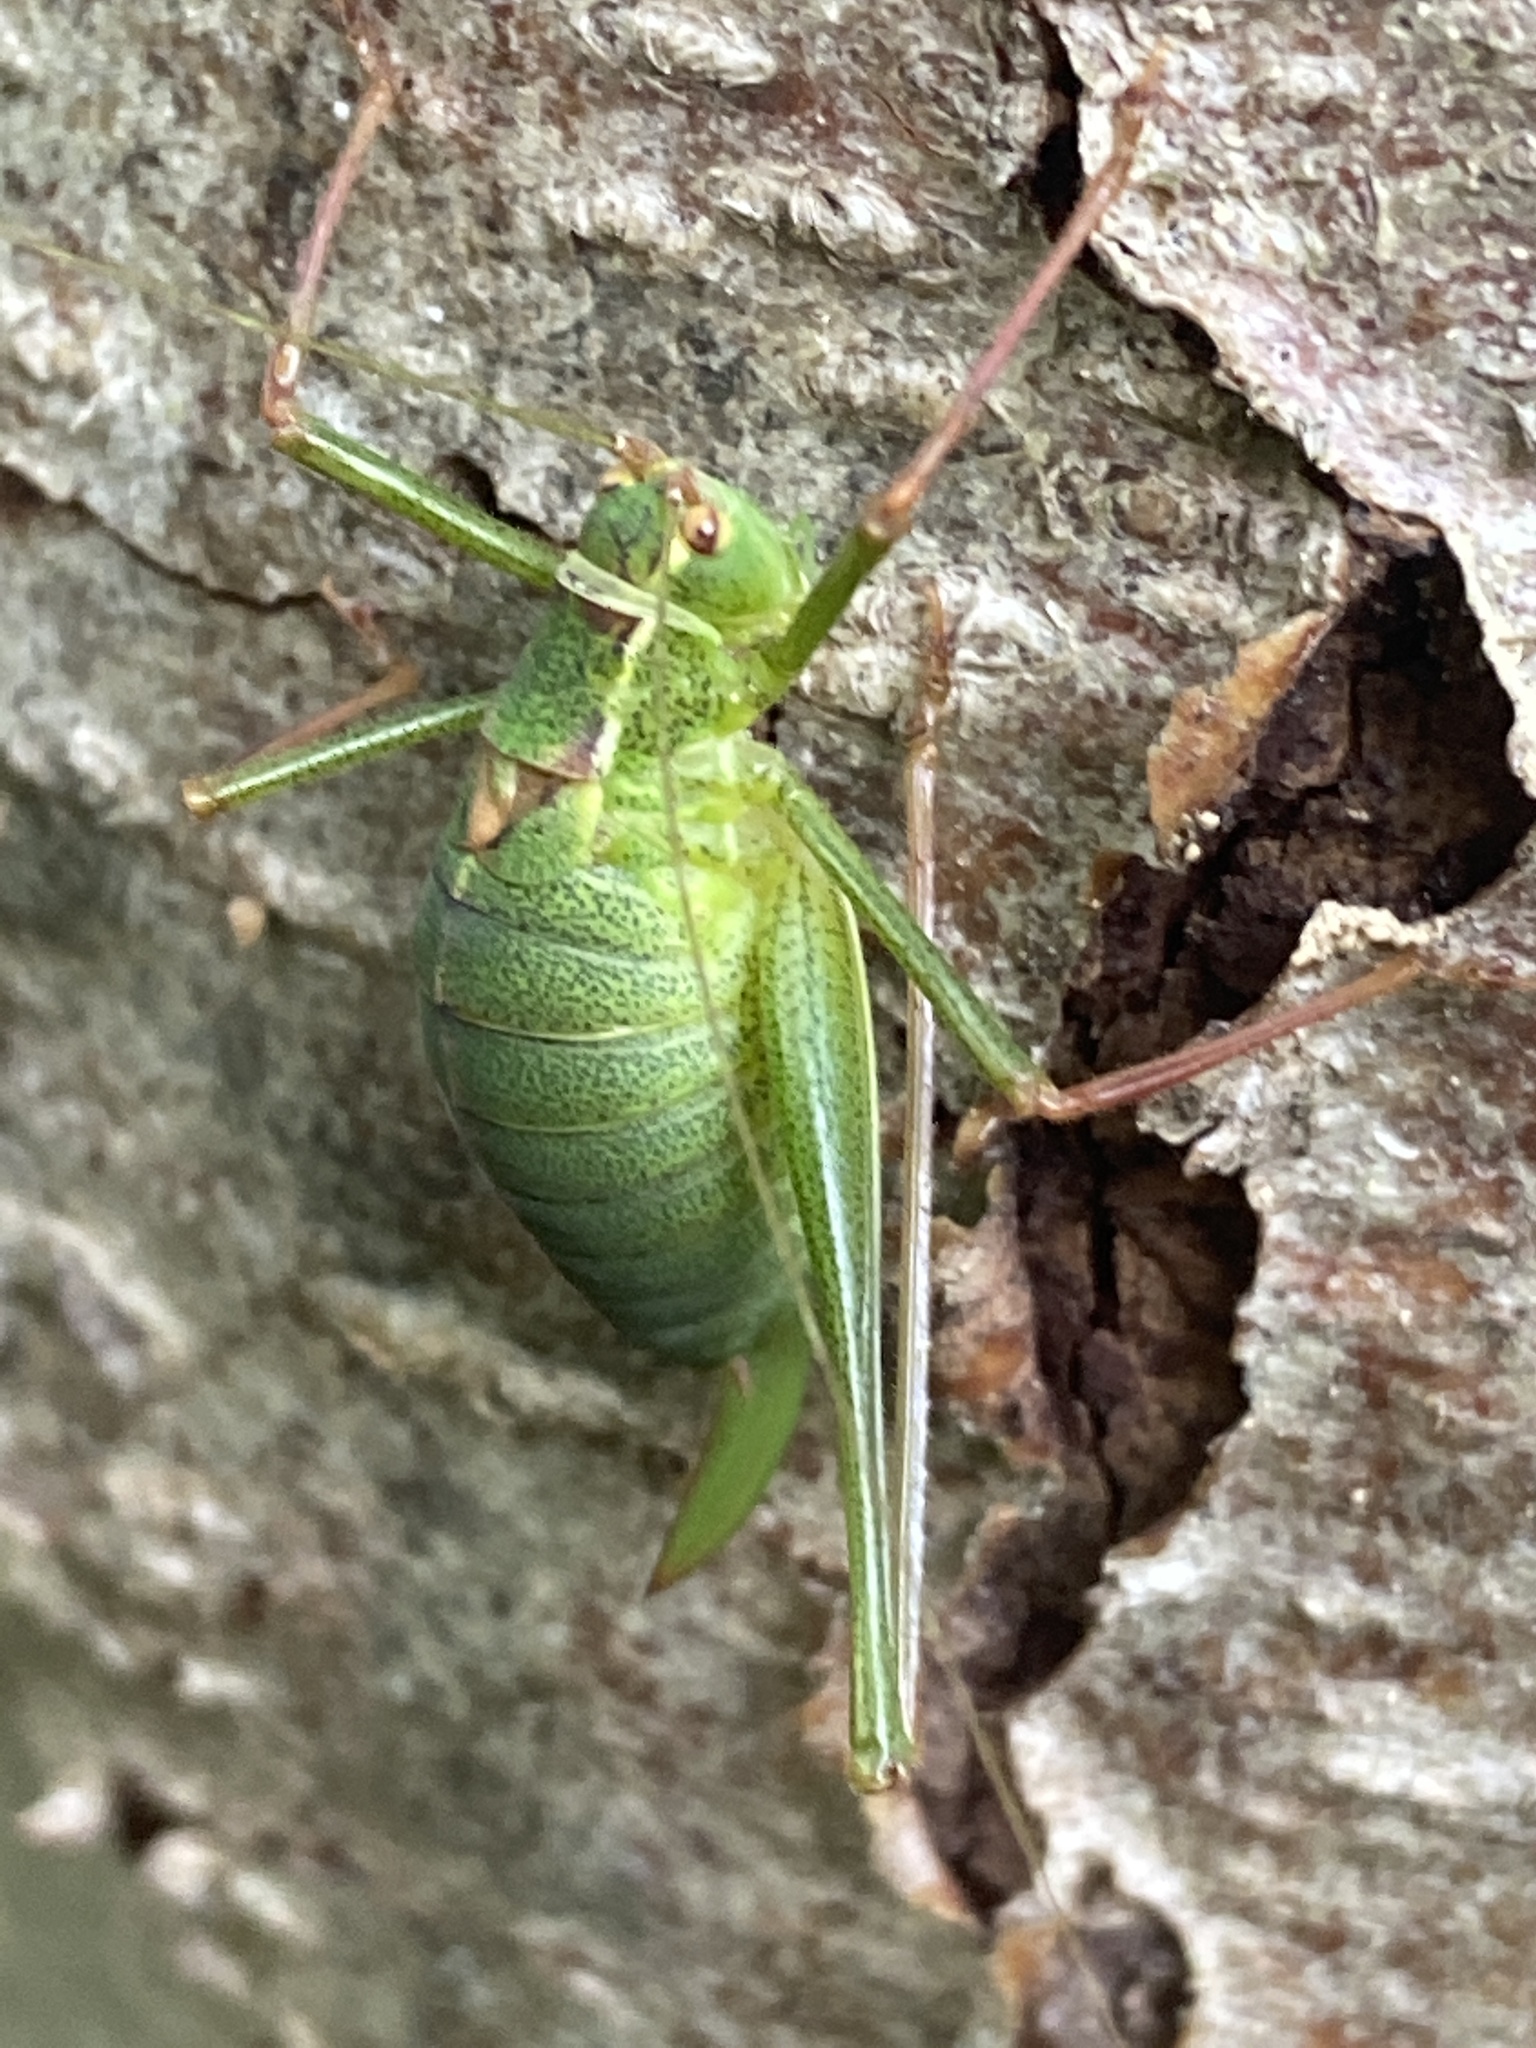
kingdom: Animalia
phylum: Arthropoda
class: Insecta
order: Orthoptera
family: Tettigoniidae
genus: Leptophyes
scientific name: Leptophyes punctatissima
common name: Speckled bush-cricket
